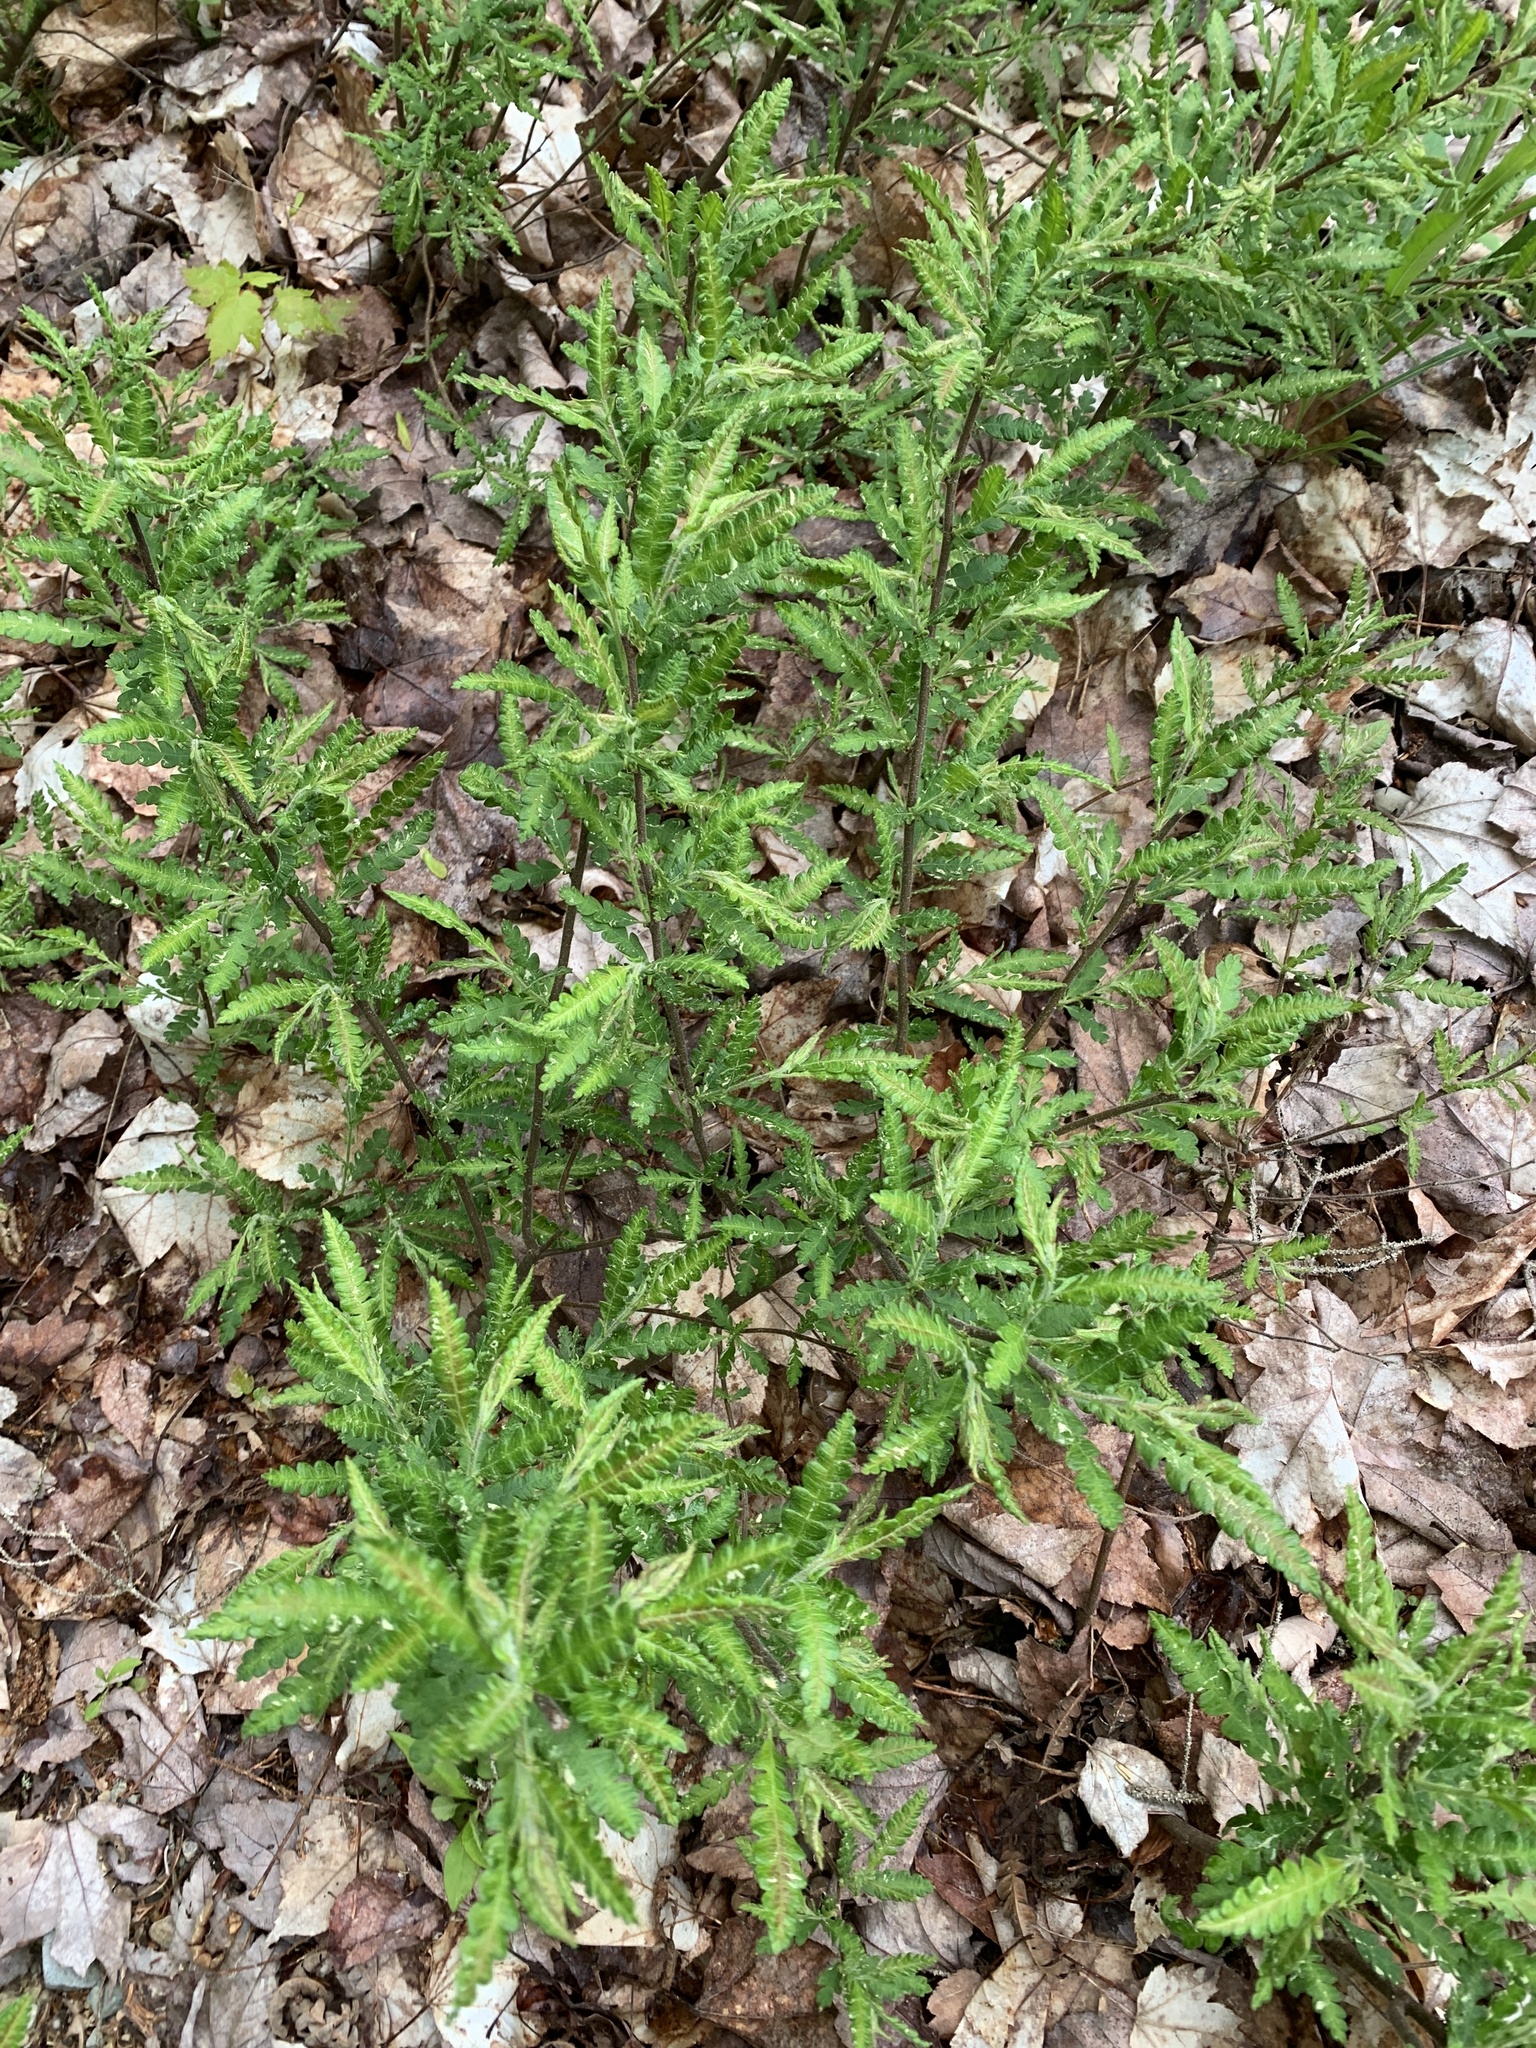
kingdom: Plantae
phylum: Tracheophyta
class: Magnoliopsida
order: Fagales
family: Myricaceae
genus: Comptonia
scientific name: Comptonia peregrina
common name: Sweet-fern
